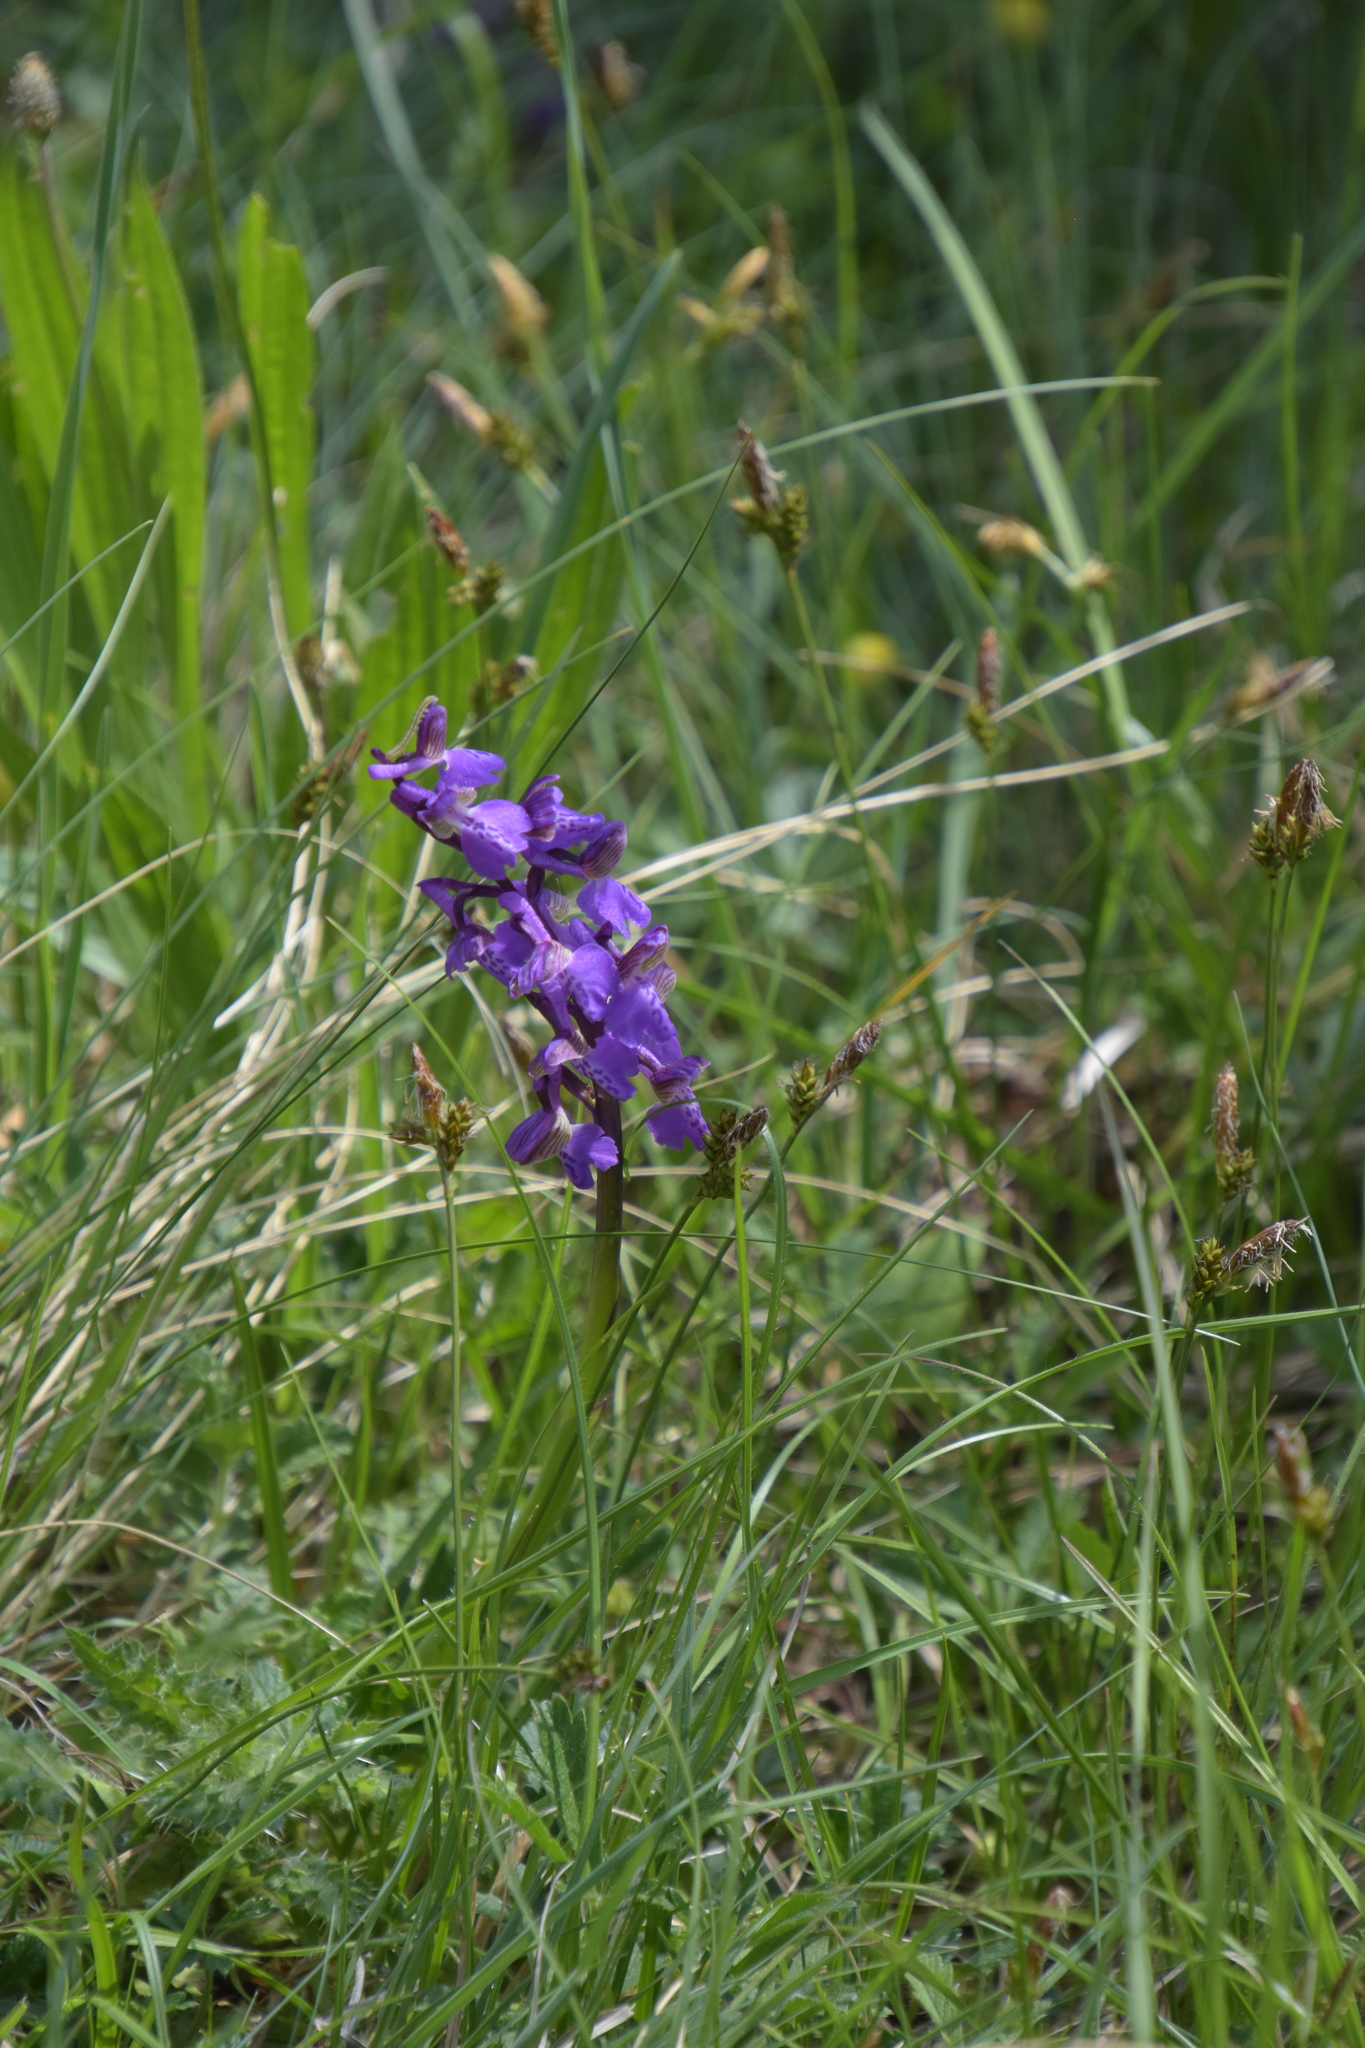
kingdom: Plantae
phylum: Tracheophyta
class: Liliopsida
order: Asparagales
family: Orchidaceae
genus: Anacamptis
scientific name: Anacamptis morio
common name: Green-winged orchid
